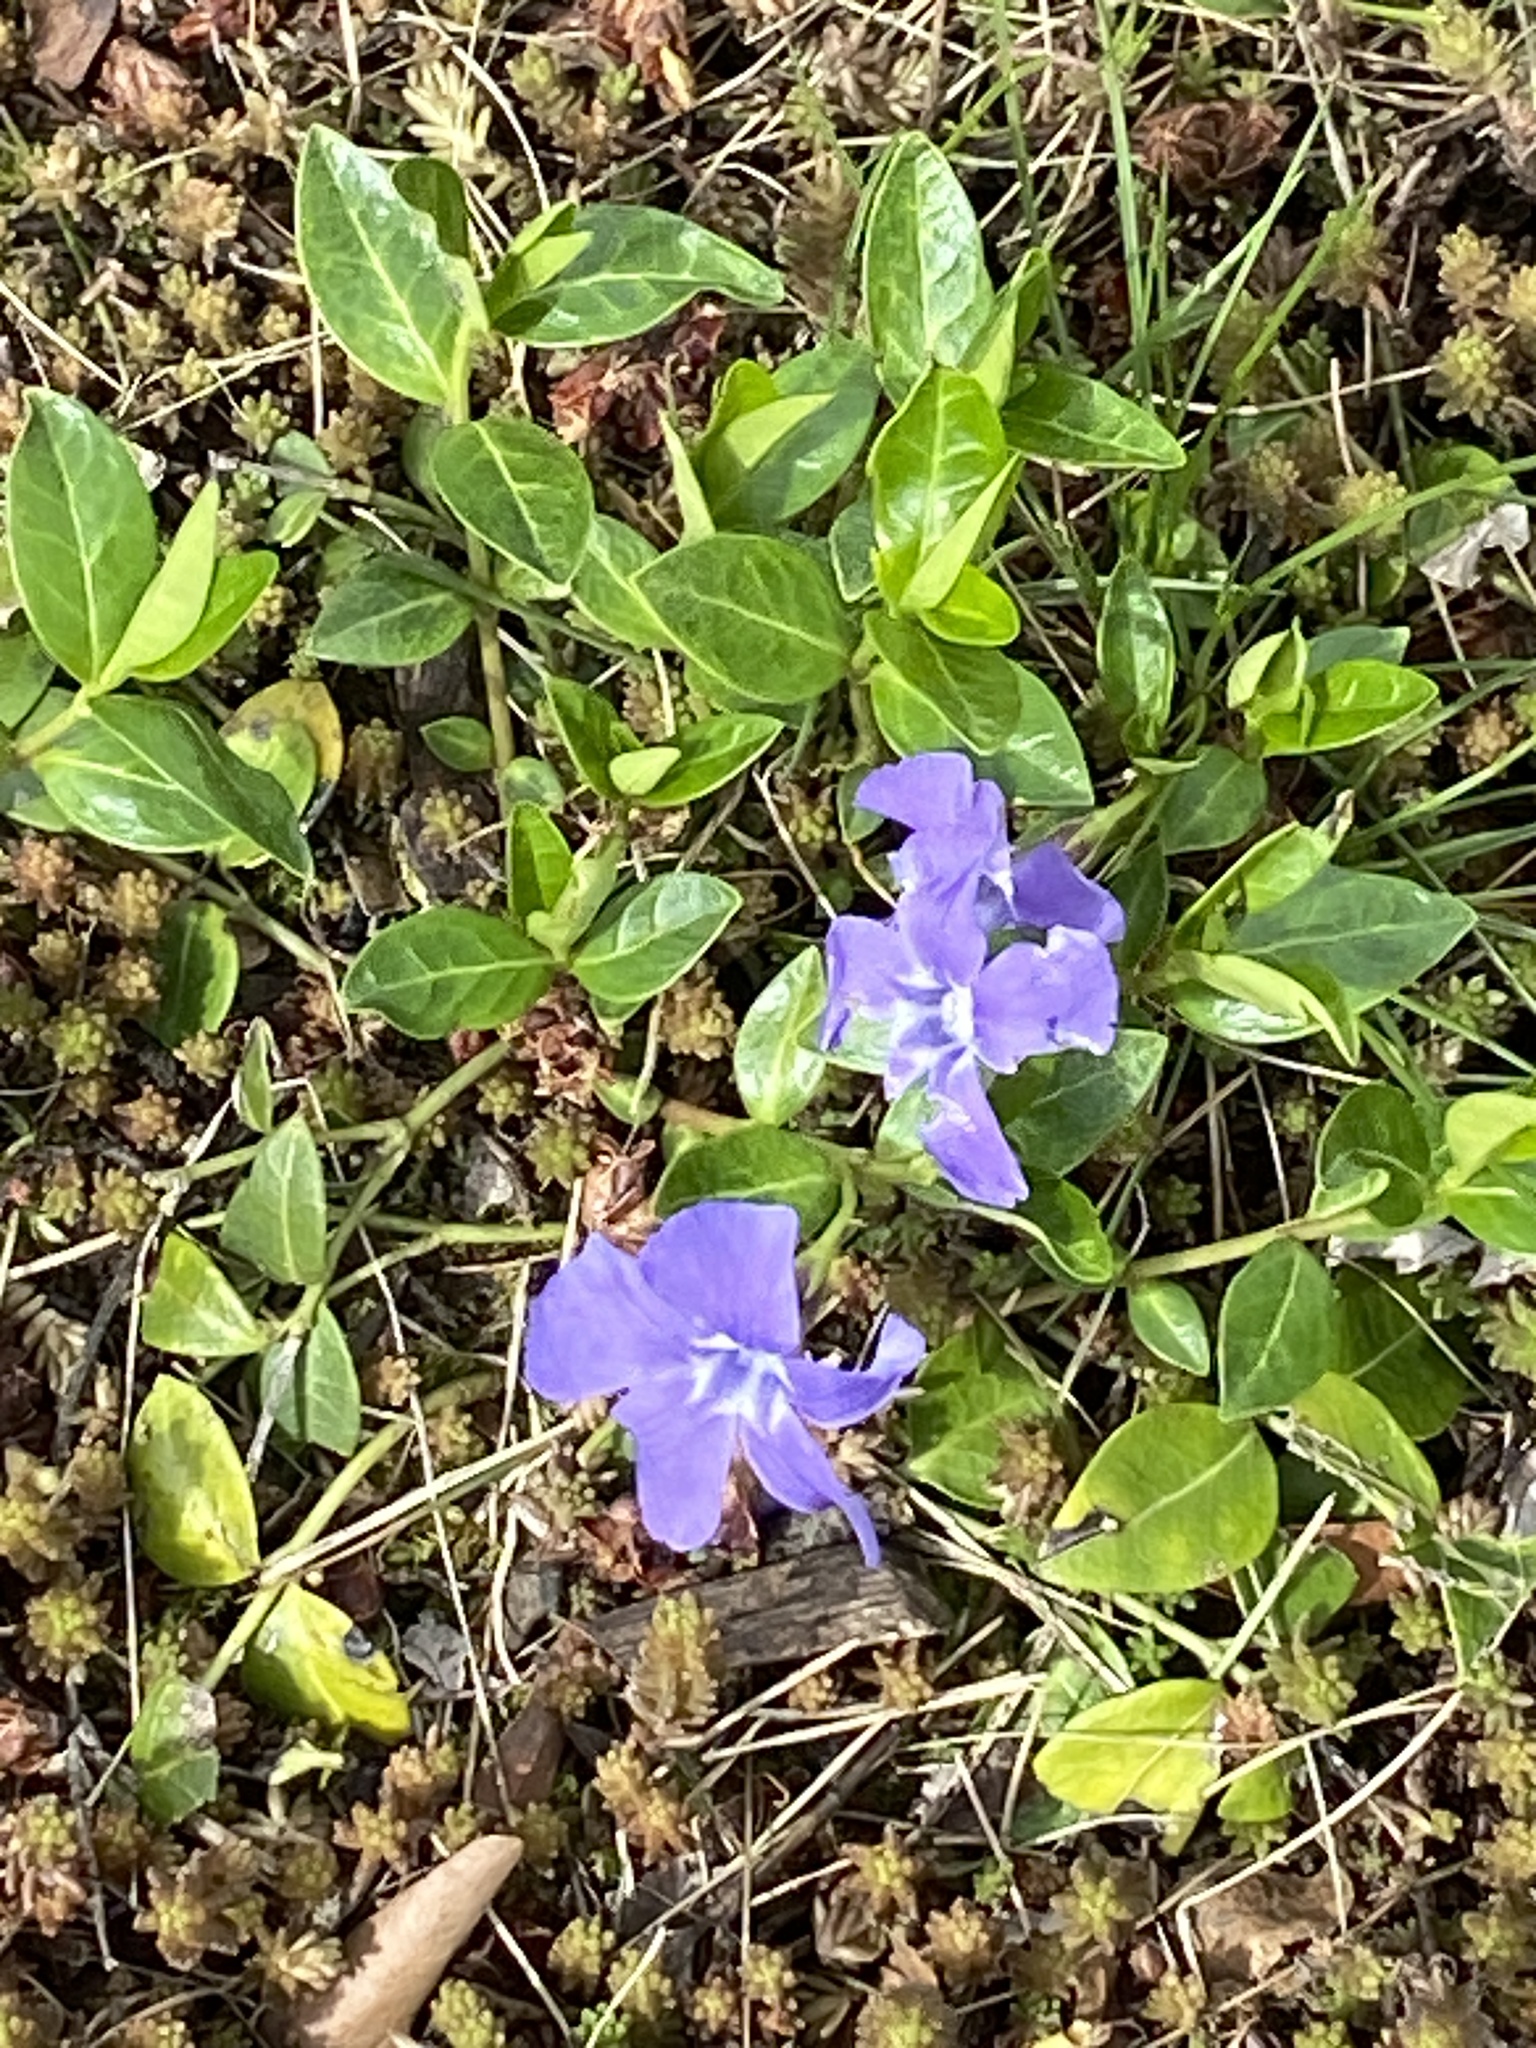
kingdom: Plantae
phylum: Tracheophyta
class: Magnoliopsida
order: Gentianales
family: Apocynaceae
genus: Vinca
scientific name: Vinca minor
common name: Lesser periwinkle
